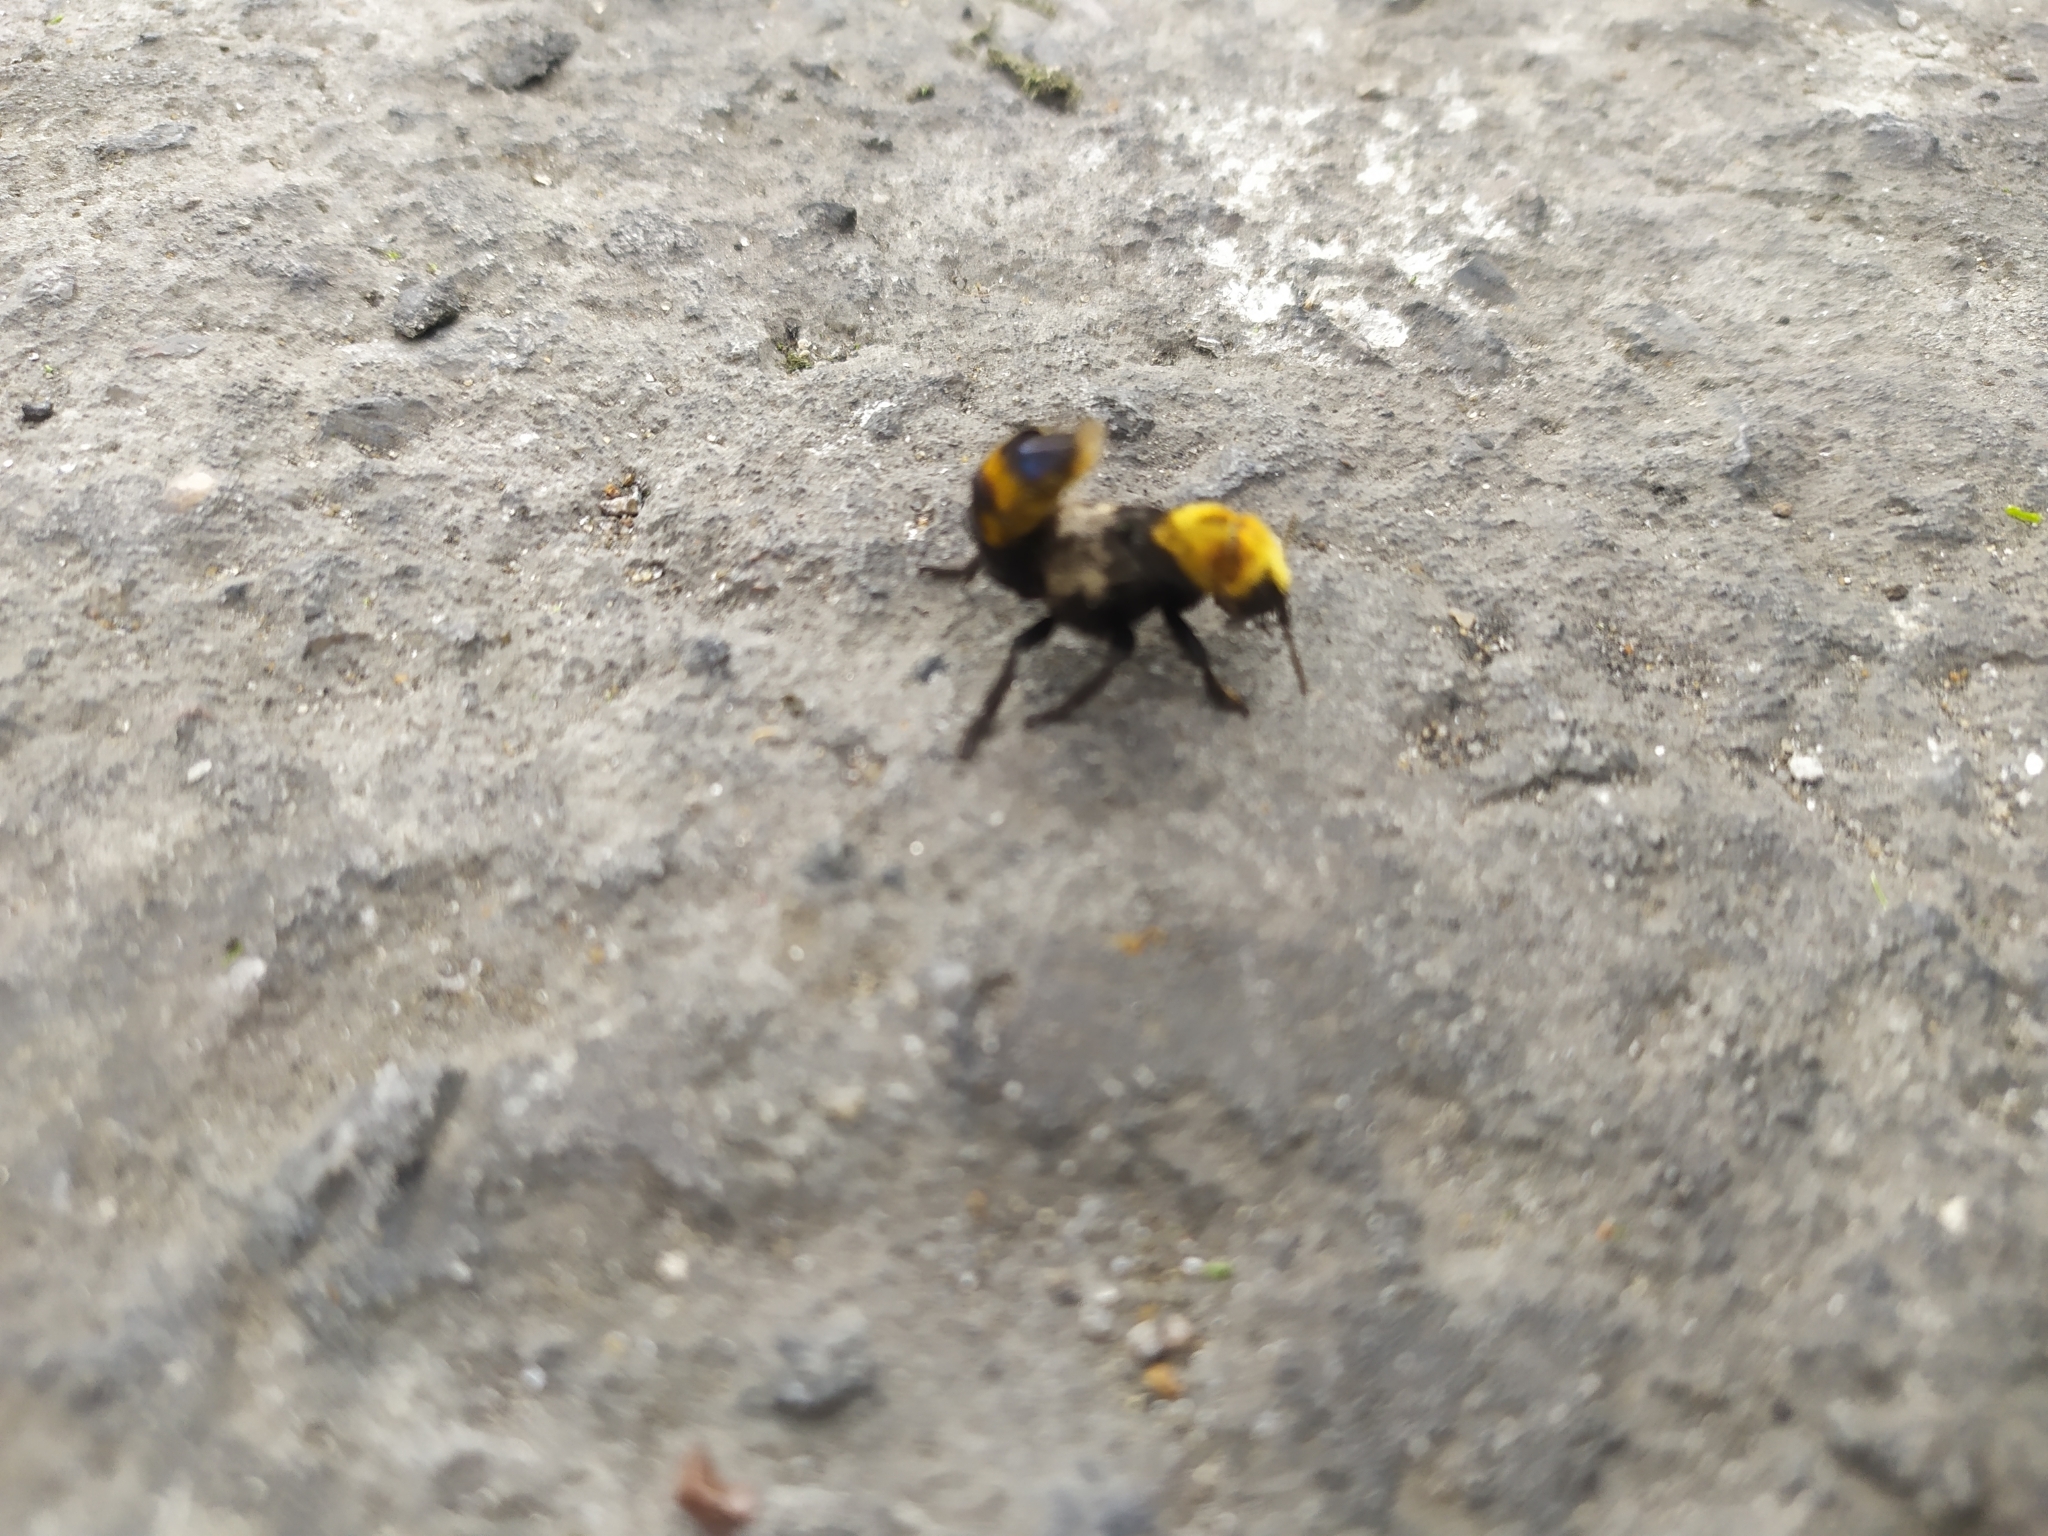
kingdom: Animalia
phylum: Arthropoda
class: Insecta
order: Coleoptera
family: Staphylinidae
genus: Emus
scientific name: Emus hirtus
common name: Hairy rove-beetle
